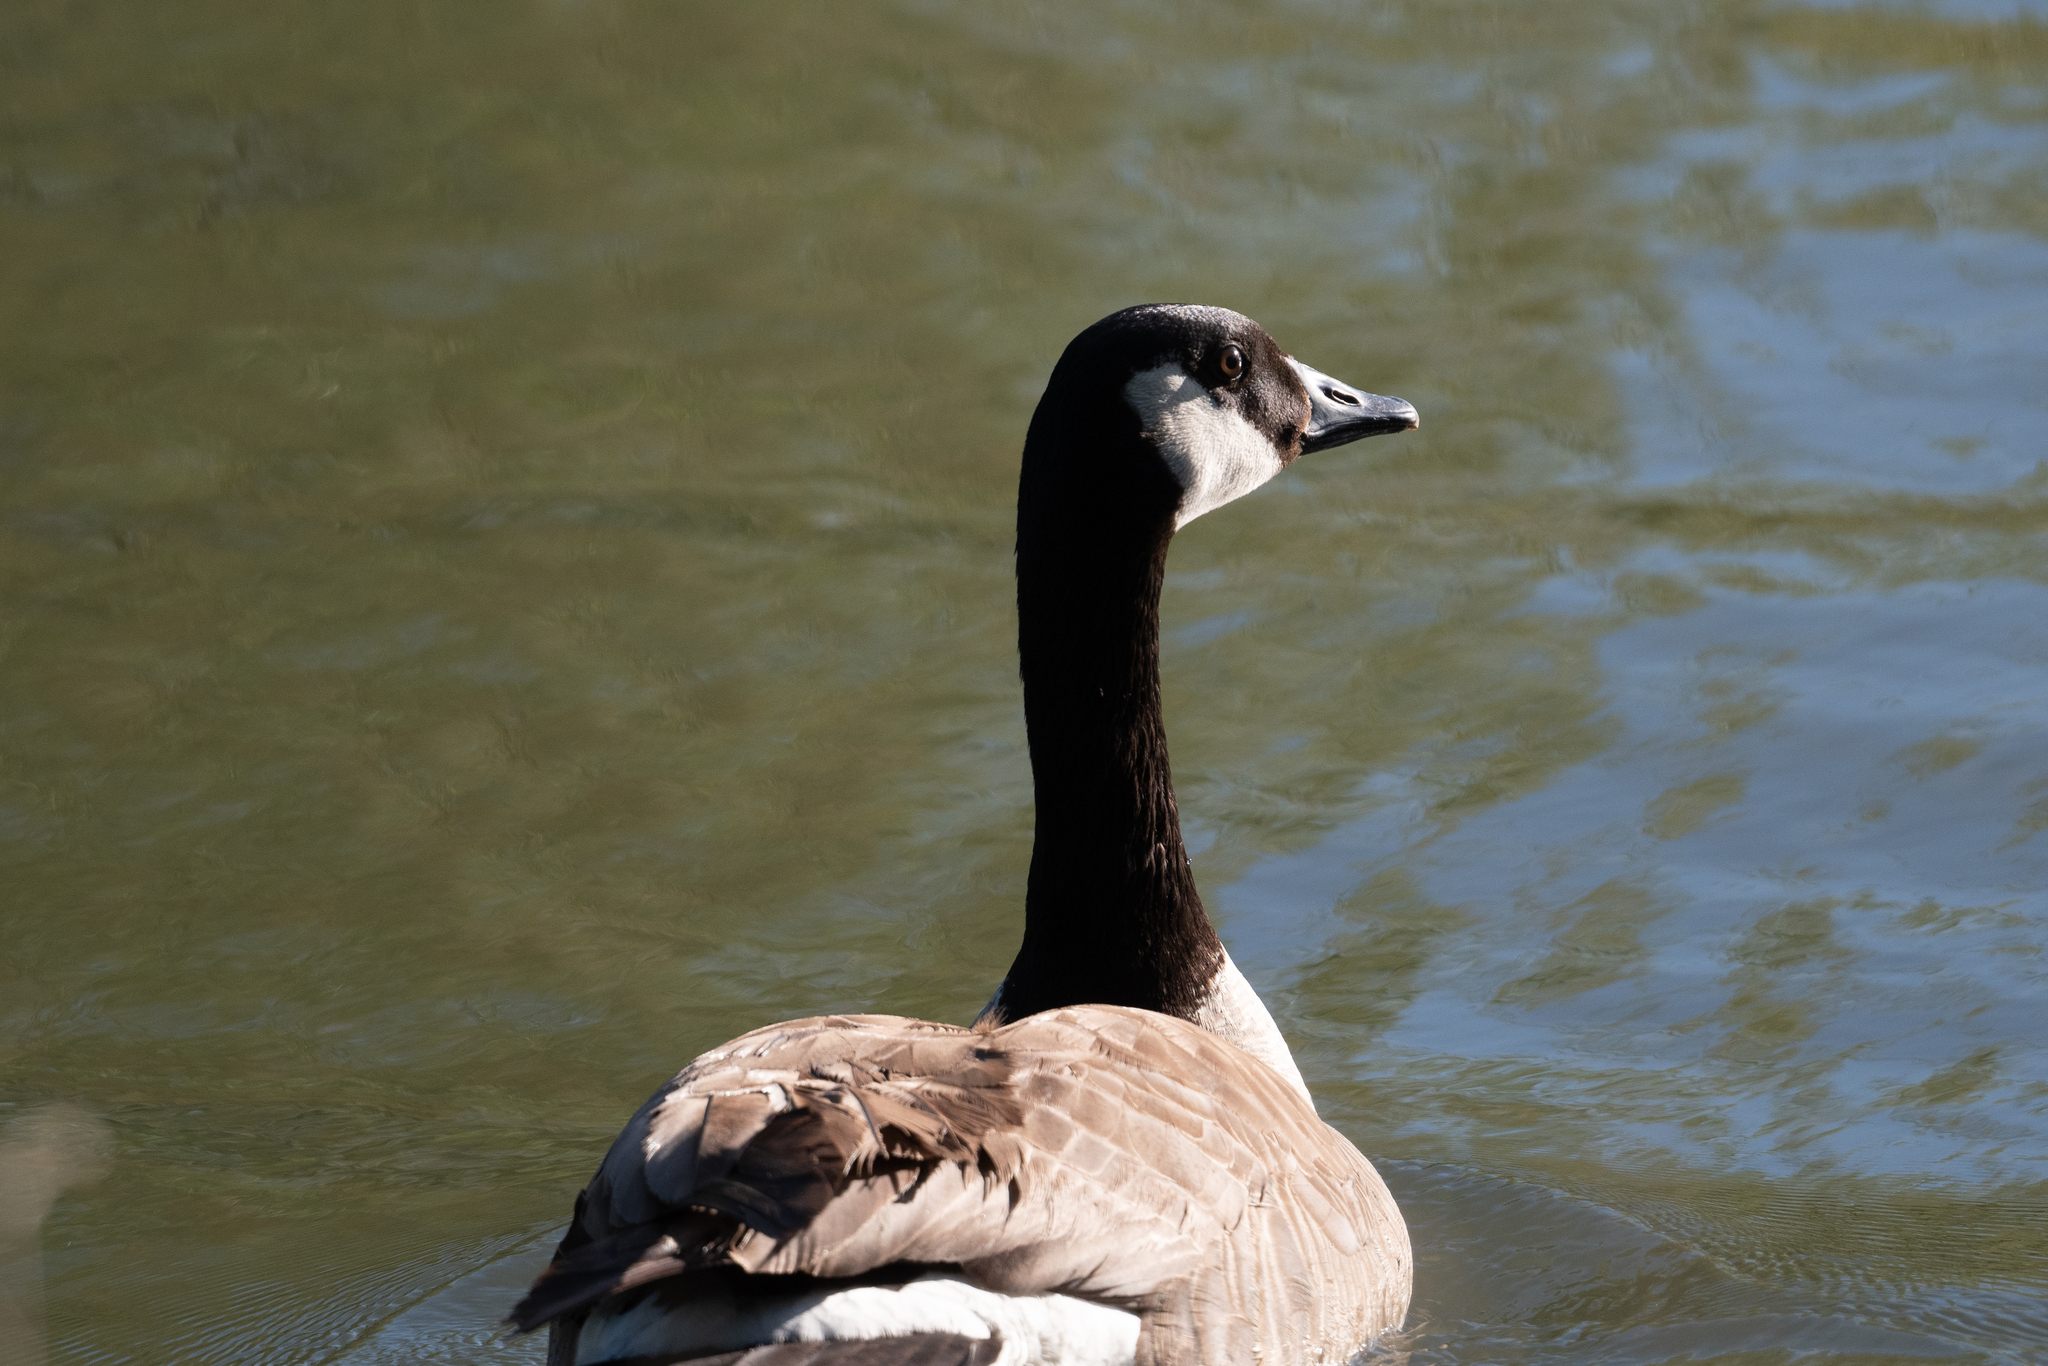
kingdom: Animalia
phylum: Chordata
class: Aves
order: Anseriformes
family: Anatidae
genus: Branta
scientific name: Branta canadensis
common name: Canada goose
